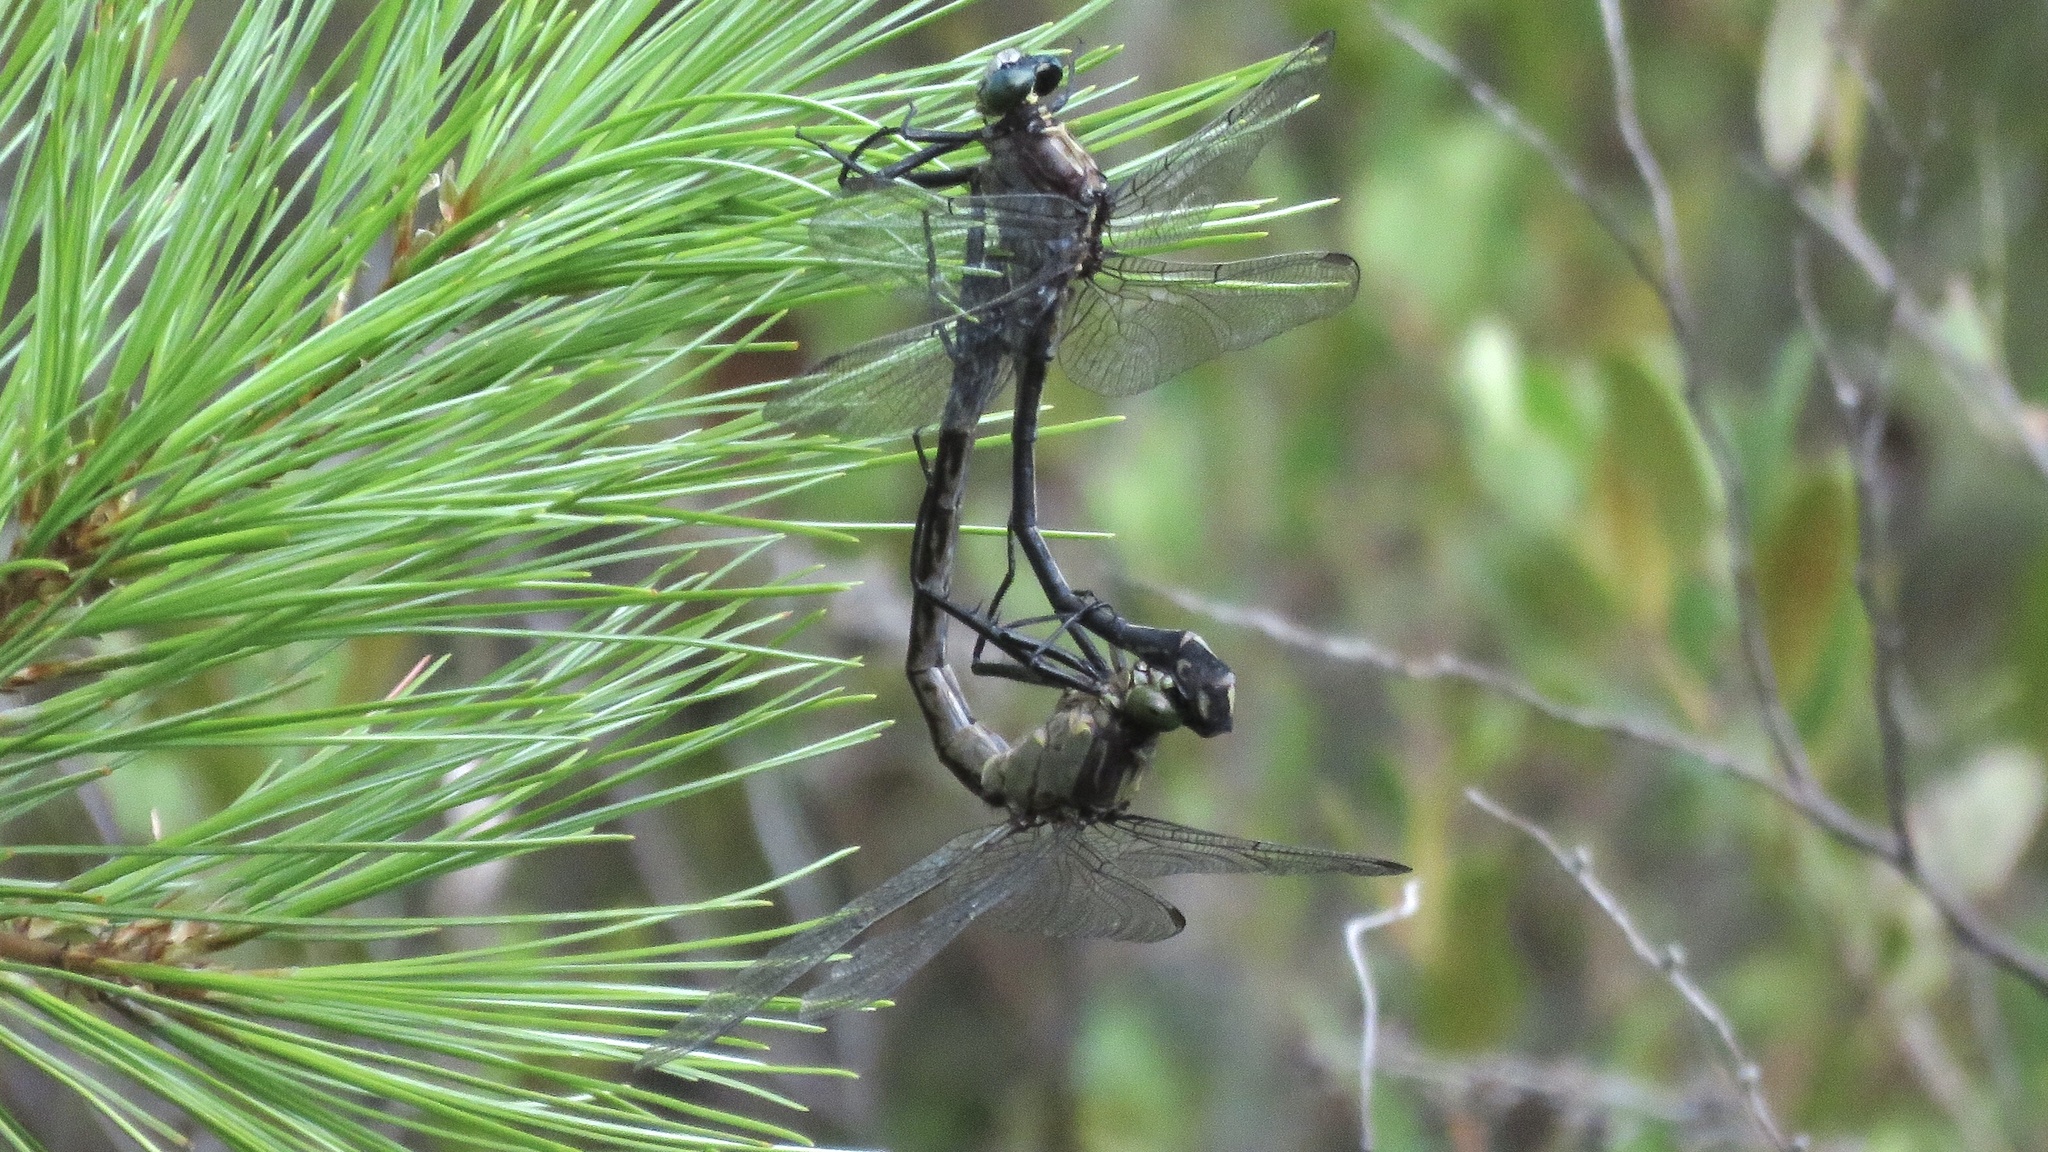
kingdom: Animalia
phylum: Arthropoda
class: Insecta
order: Odonata
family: Gomphidae
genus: Dromogomphus
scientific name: Dromogomphus spinosus
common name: Black-shouldered spinyleg
